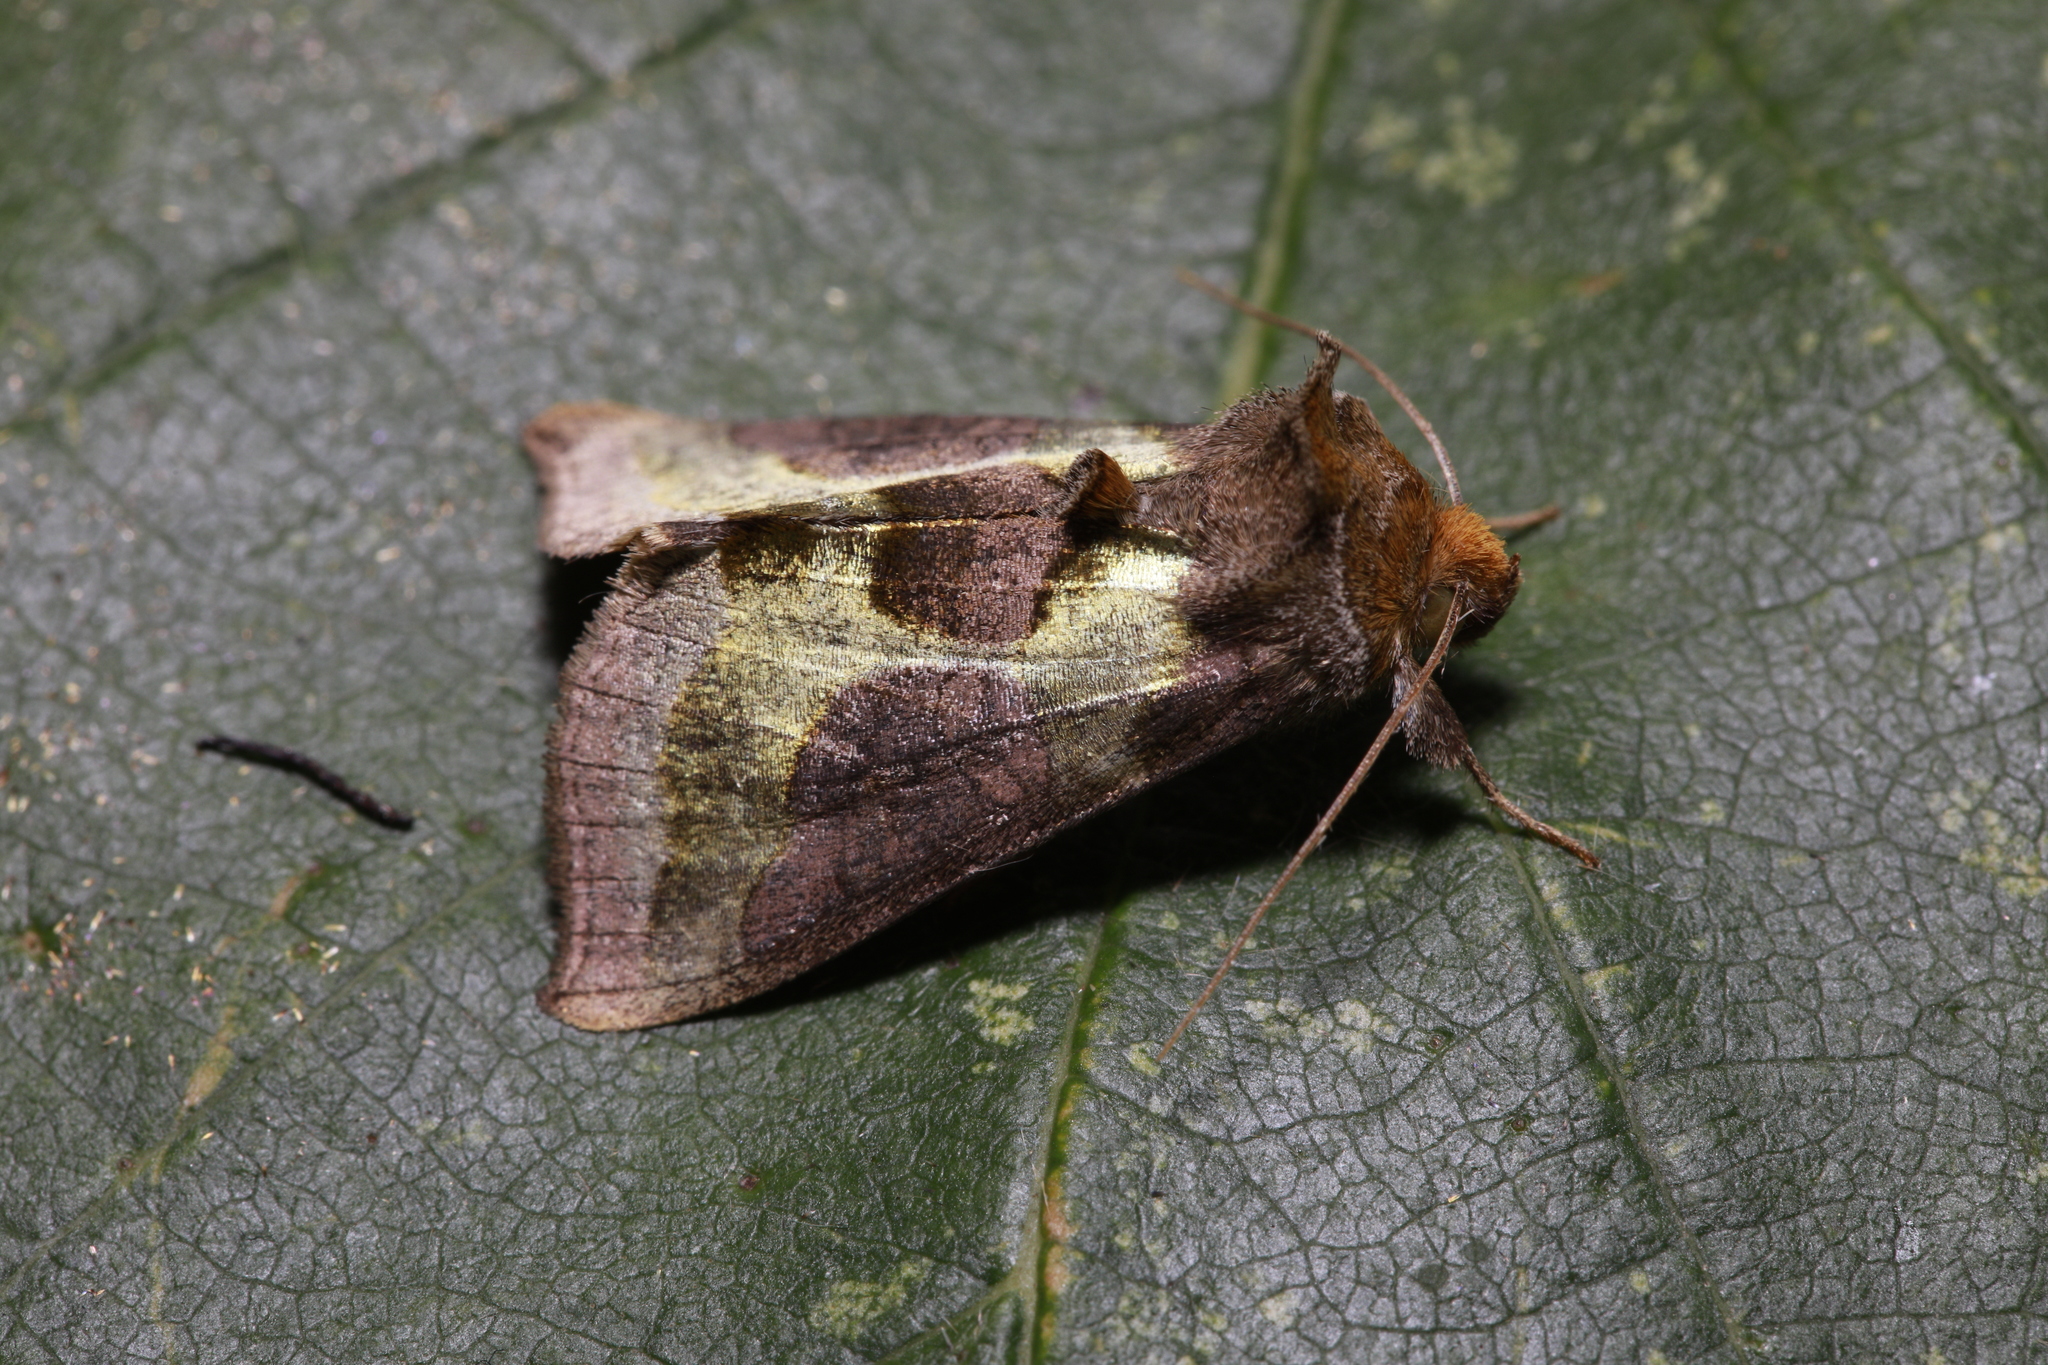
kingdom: Animalia
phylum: Arthropoda
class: Insecta
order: Lepidoptera
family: Noctuidae
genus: Diachrysia
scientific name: Diachrysia chrysitis
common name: Burnished brass
